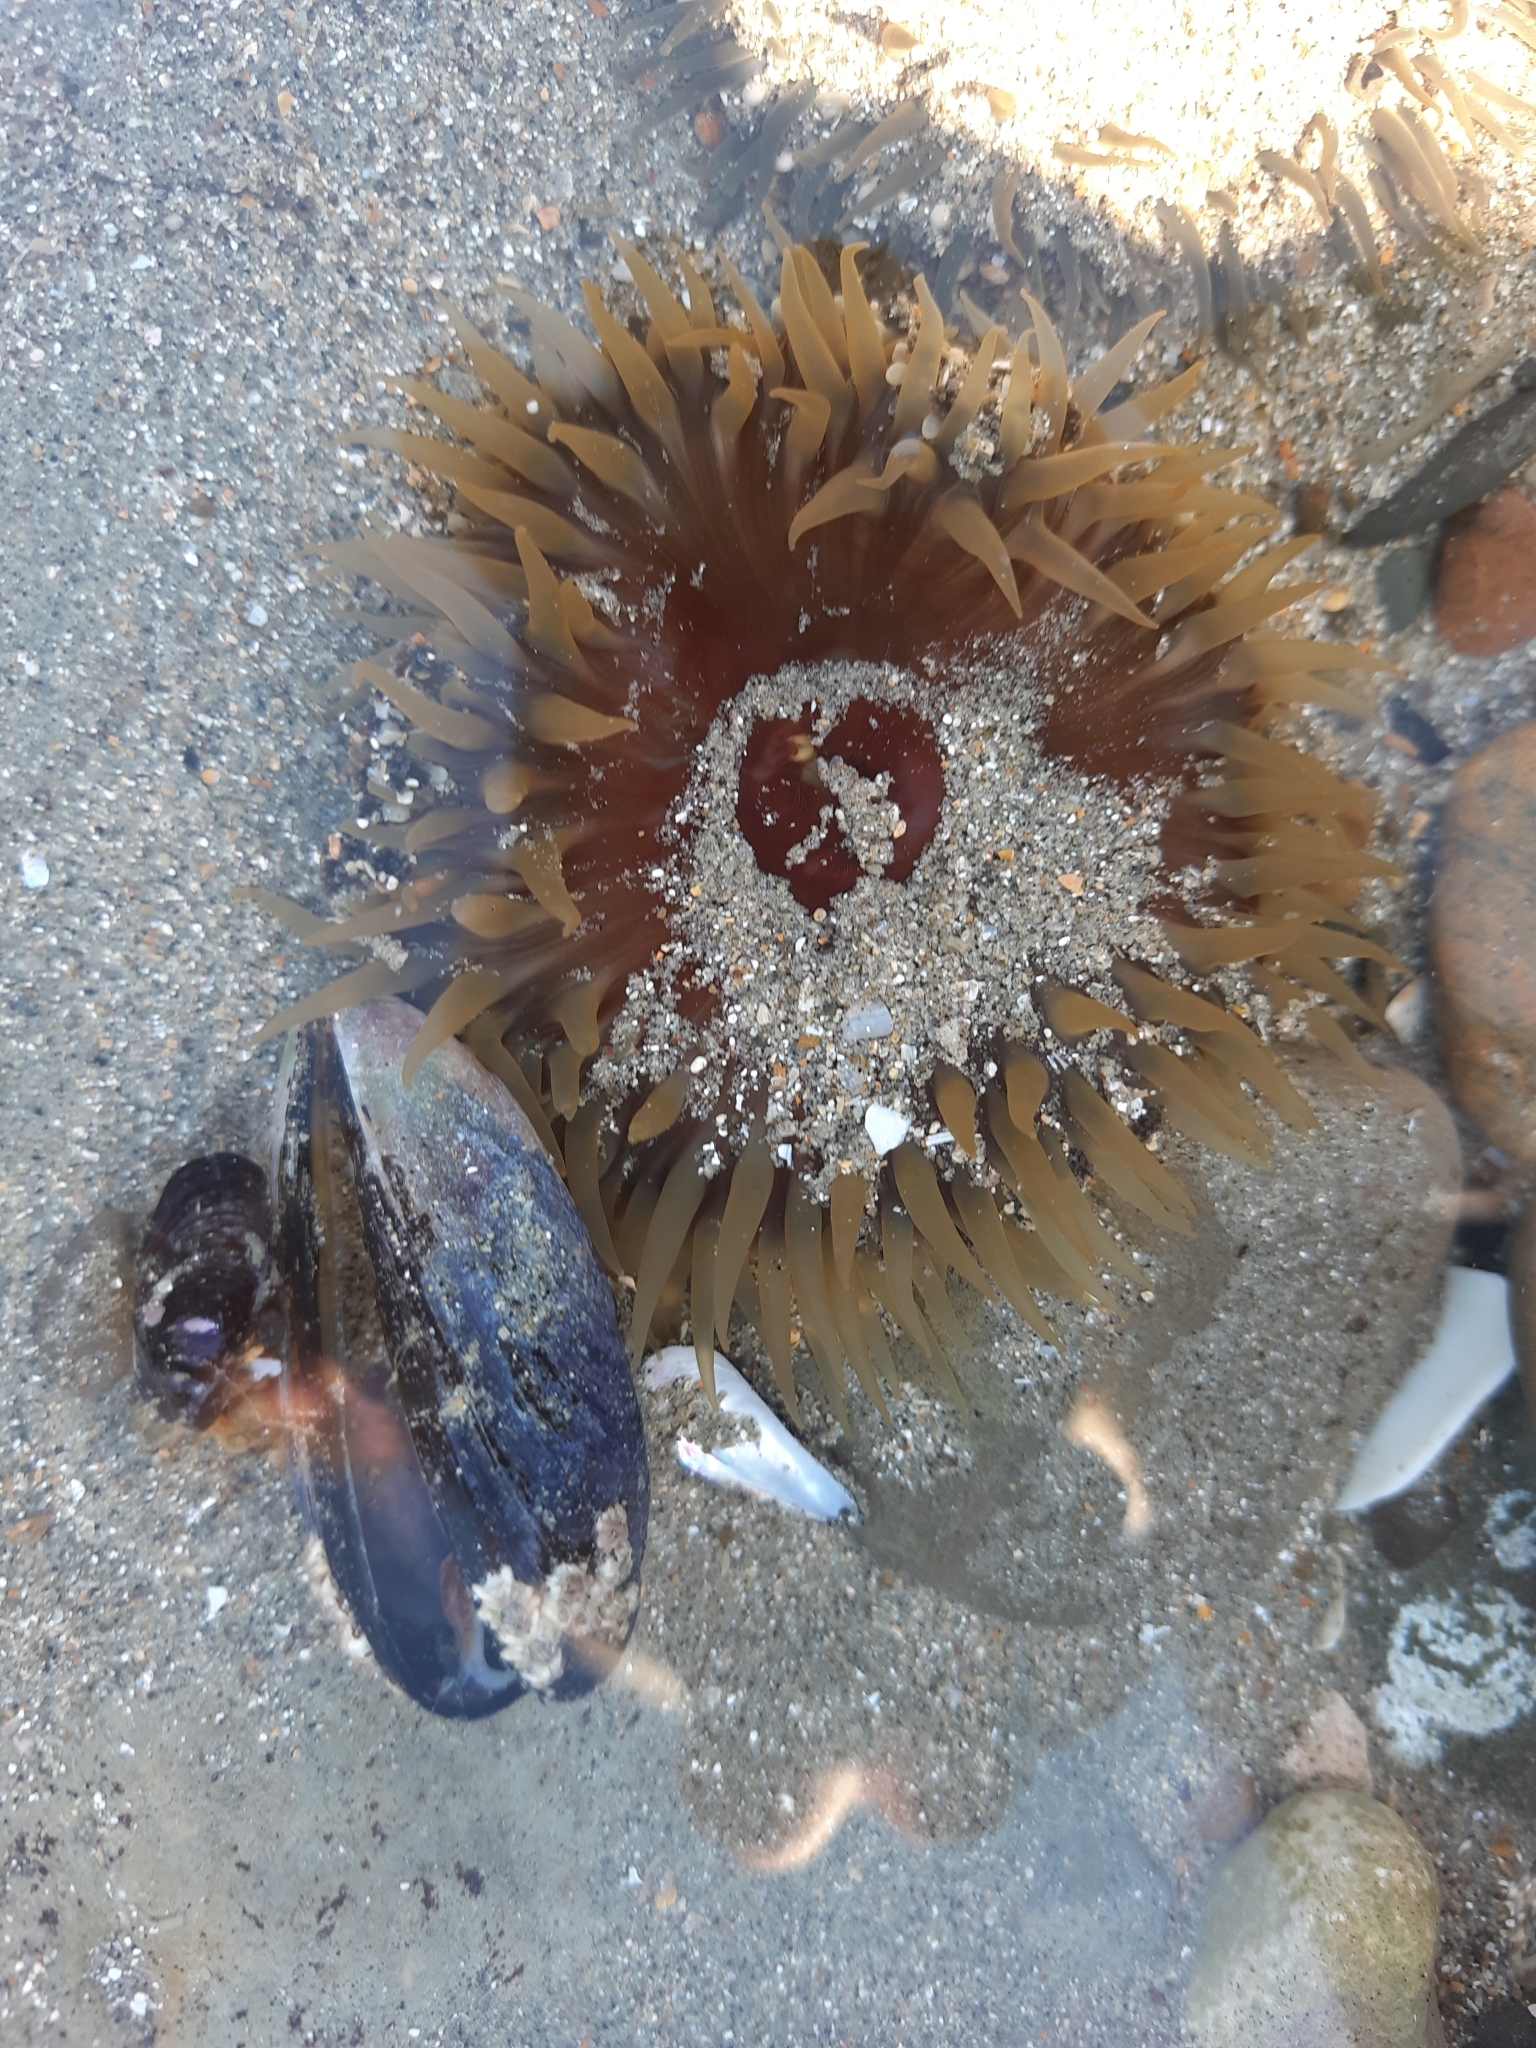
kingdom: Animalia
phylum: Cnidaria
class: Anthozoa
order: Actiniaria
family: Actiniidae
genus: Oulactis
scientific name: Oulactis magna
